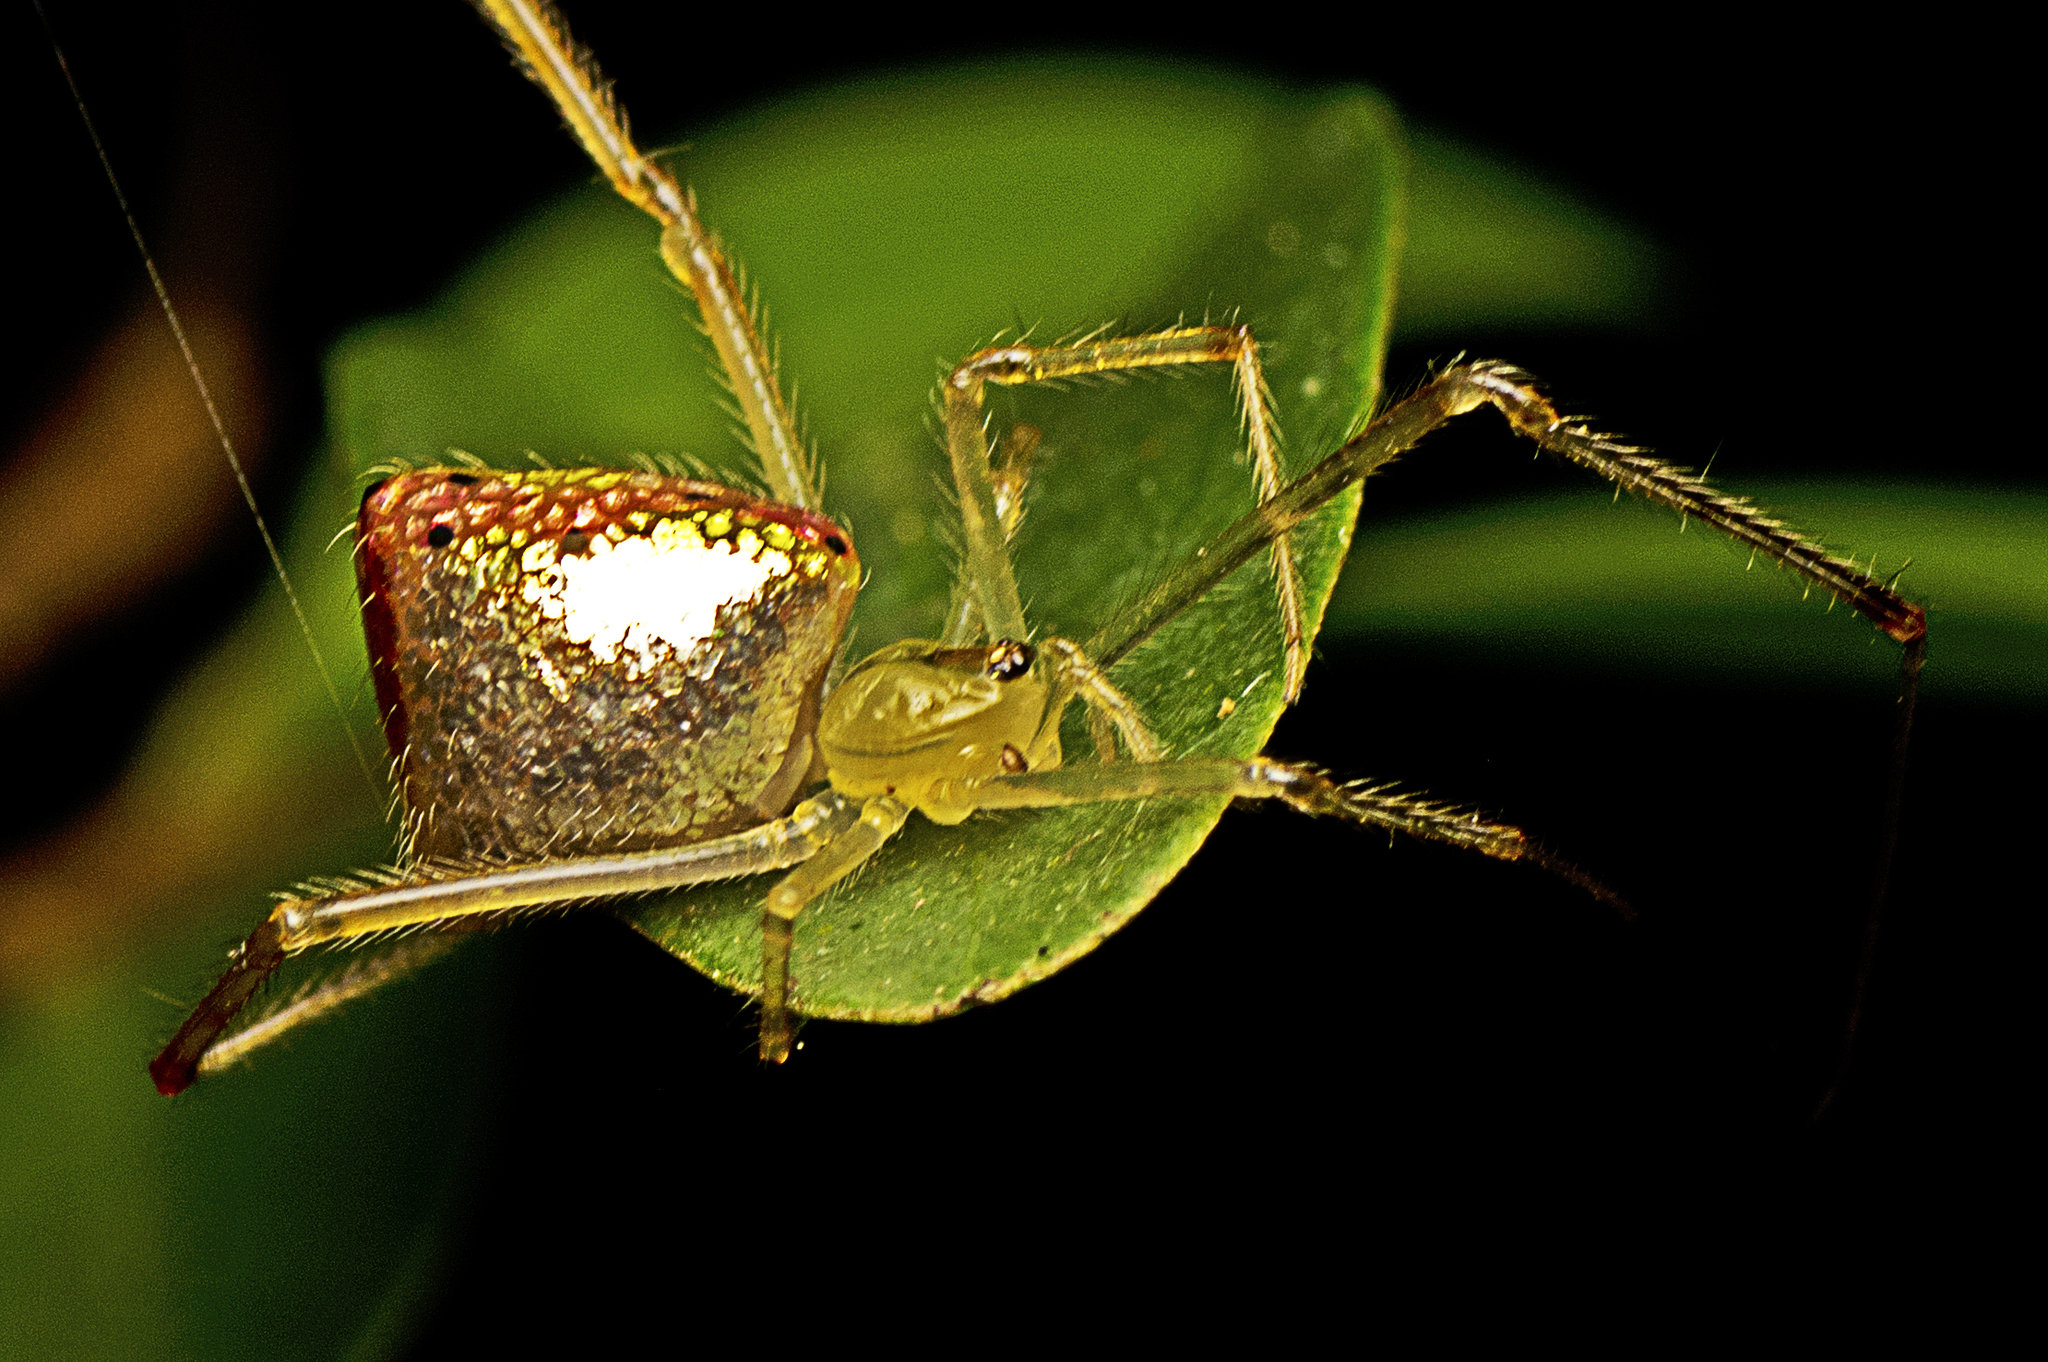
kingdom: Animalia
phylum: Arthropoda
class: Arachnida
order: Araneae
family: Theridiidae
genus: Thwaitesia
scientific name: Thwaitesia nigronodosa
